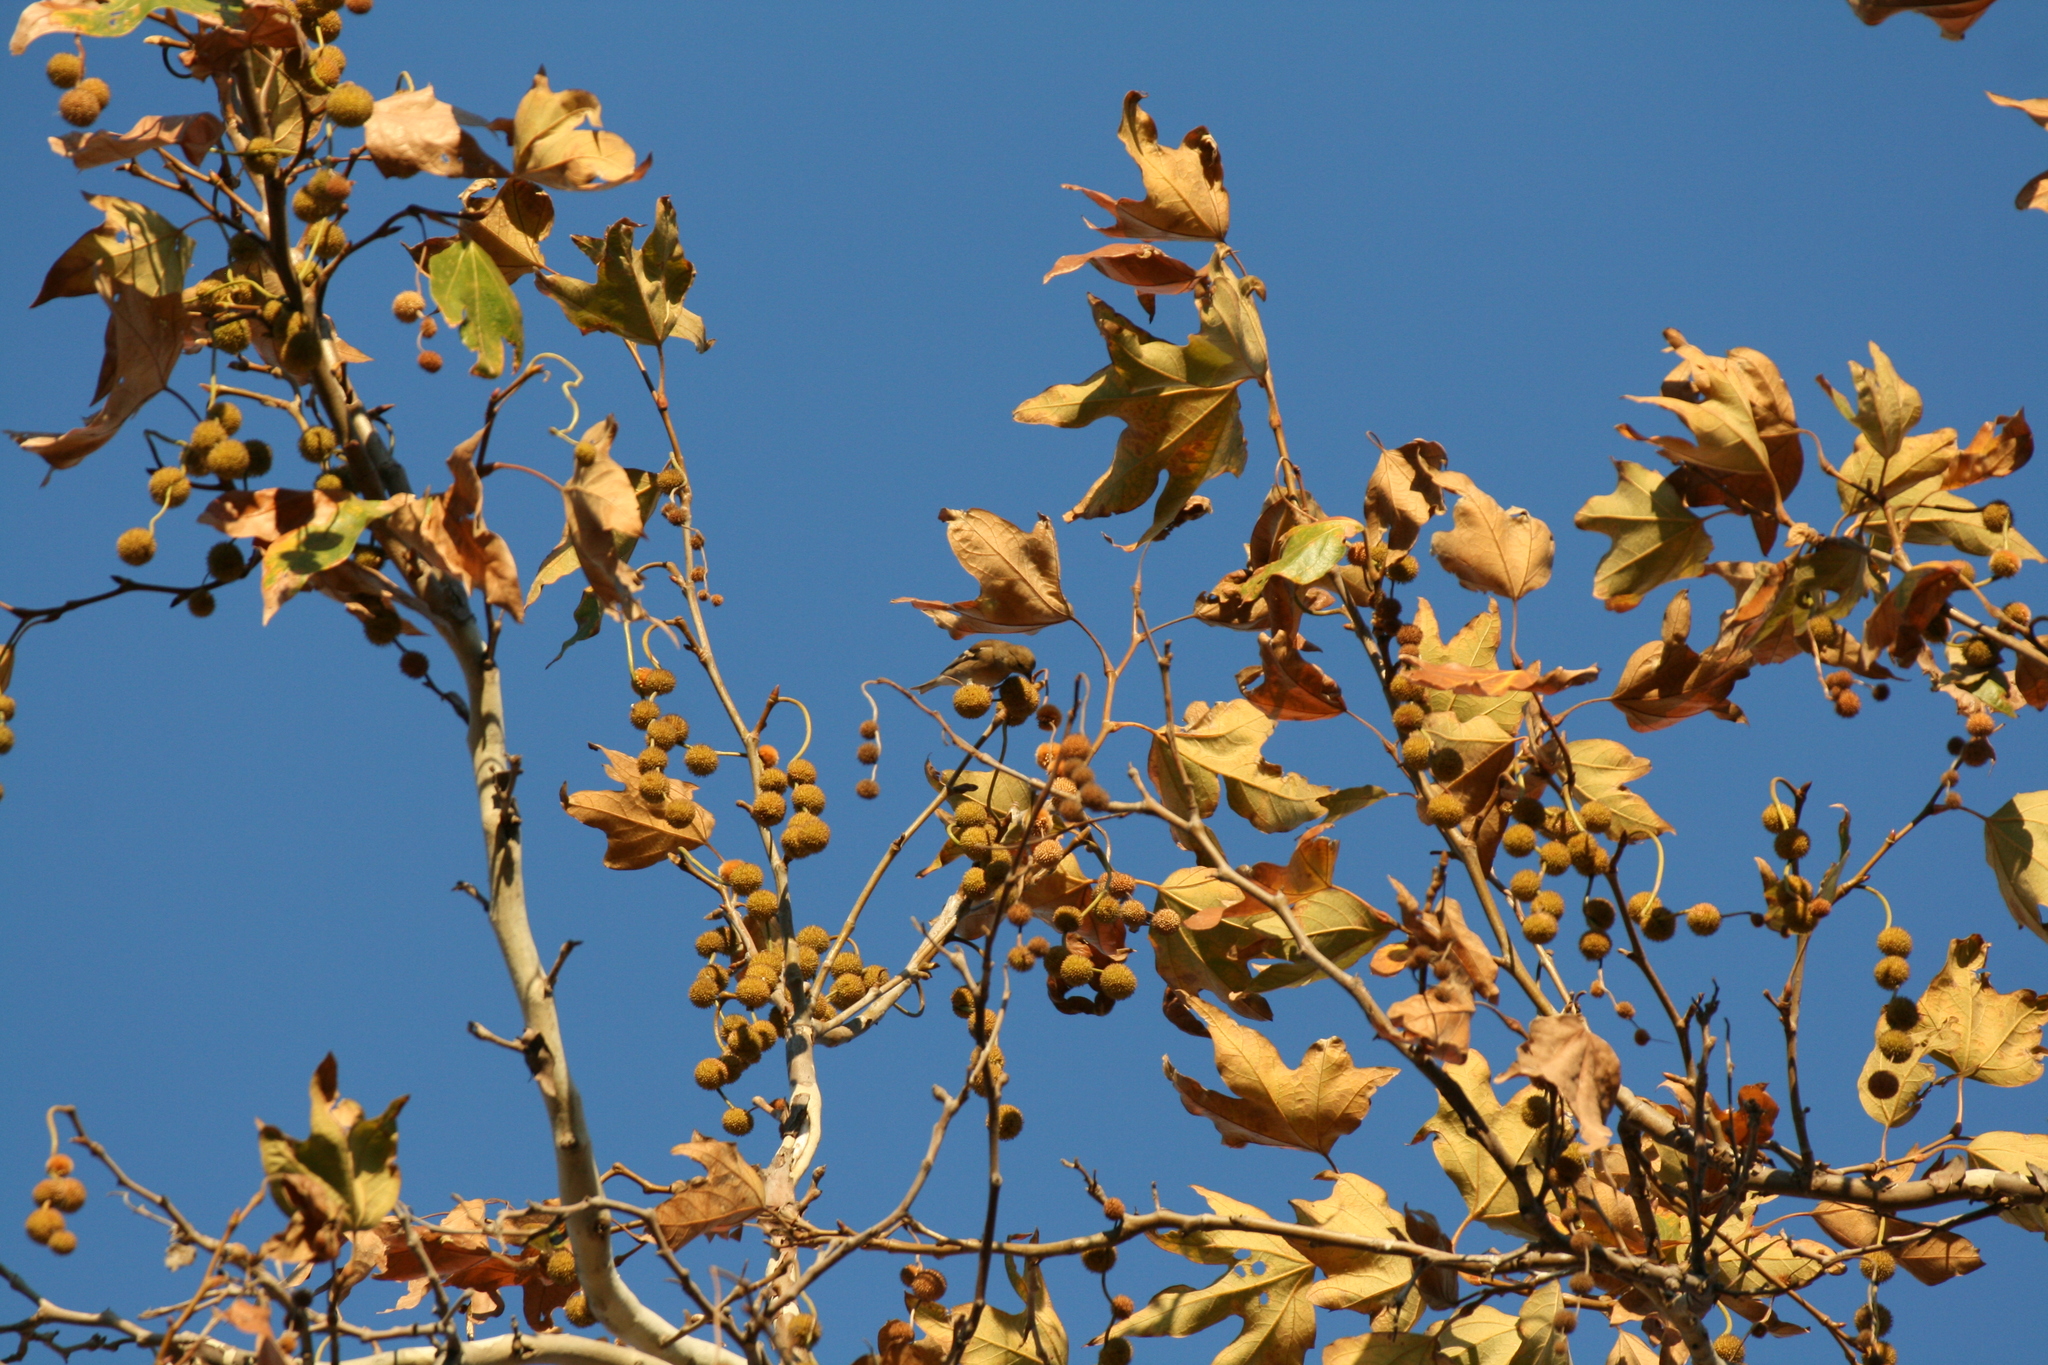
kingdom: Animalia
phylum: Chordata
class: Aves
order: Passeriformes
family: Fringillidae
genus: Spinus
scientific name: Spinus tristis
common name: American goldfinch
